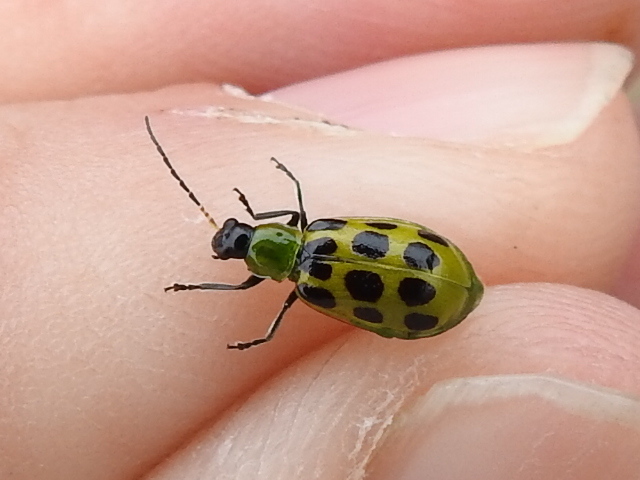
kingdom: Animalia
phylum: Arthropoda
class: Insecta
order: Coleoptera
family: Chrysomelidae
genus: Diabrotica
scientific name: Diabrotica undecimpunctata
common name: Spotted cucumber beetle
